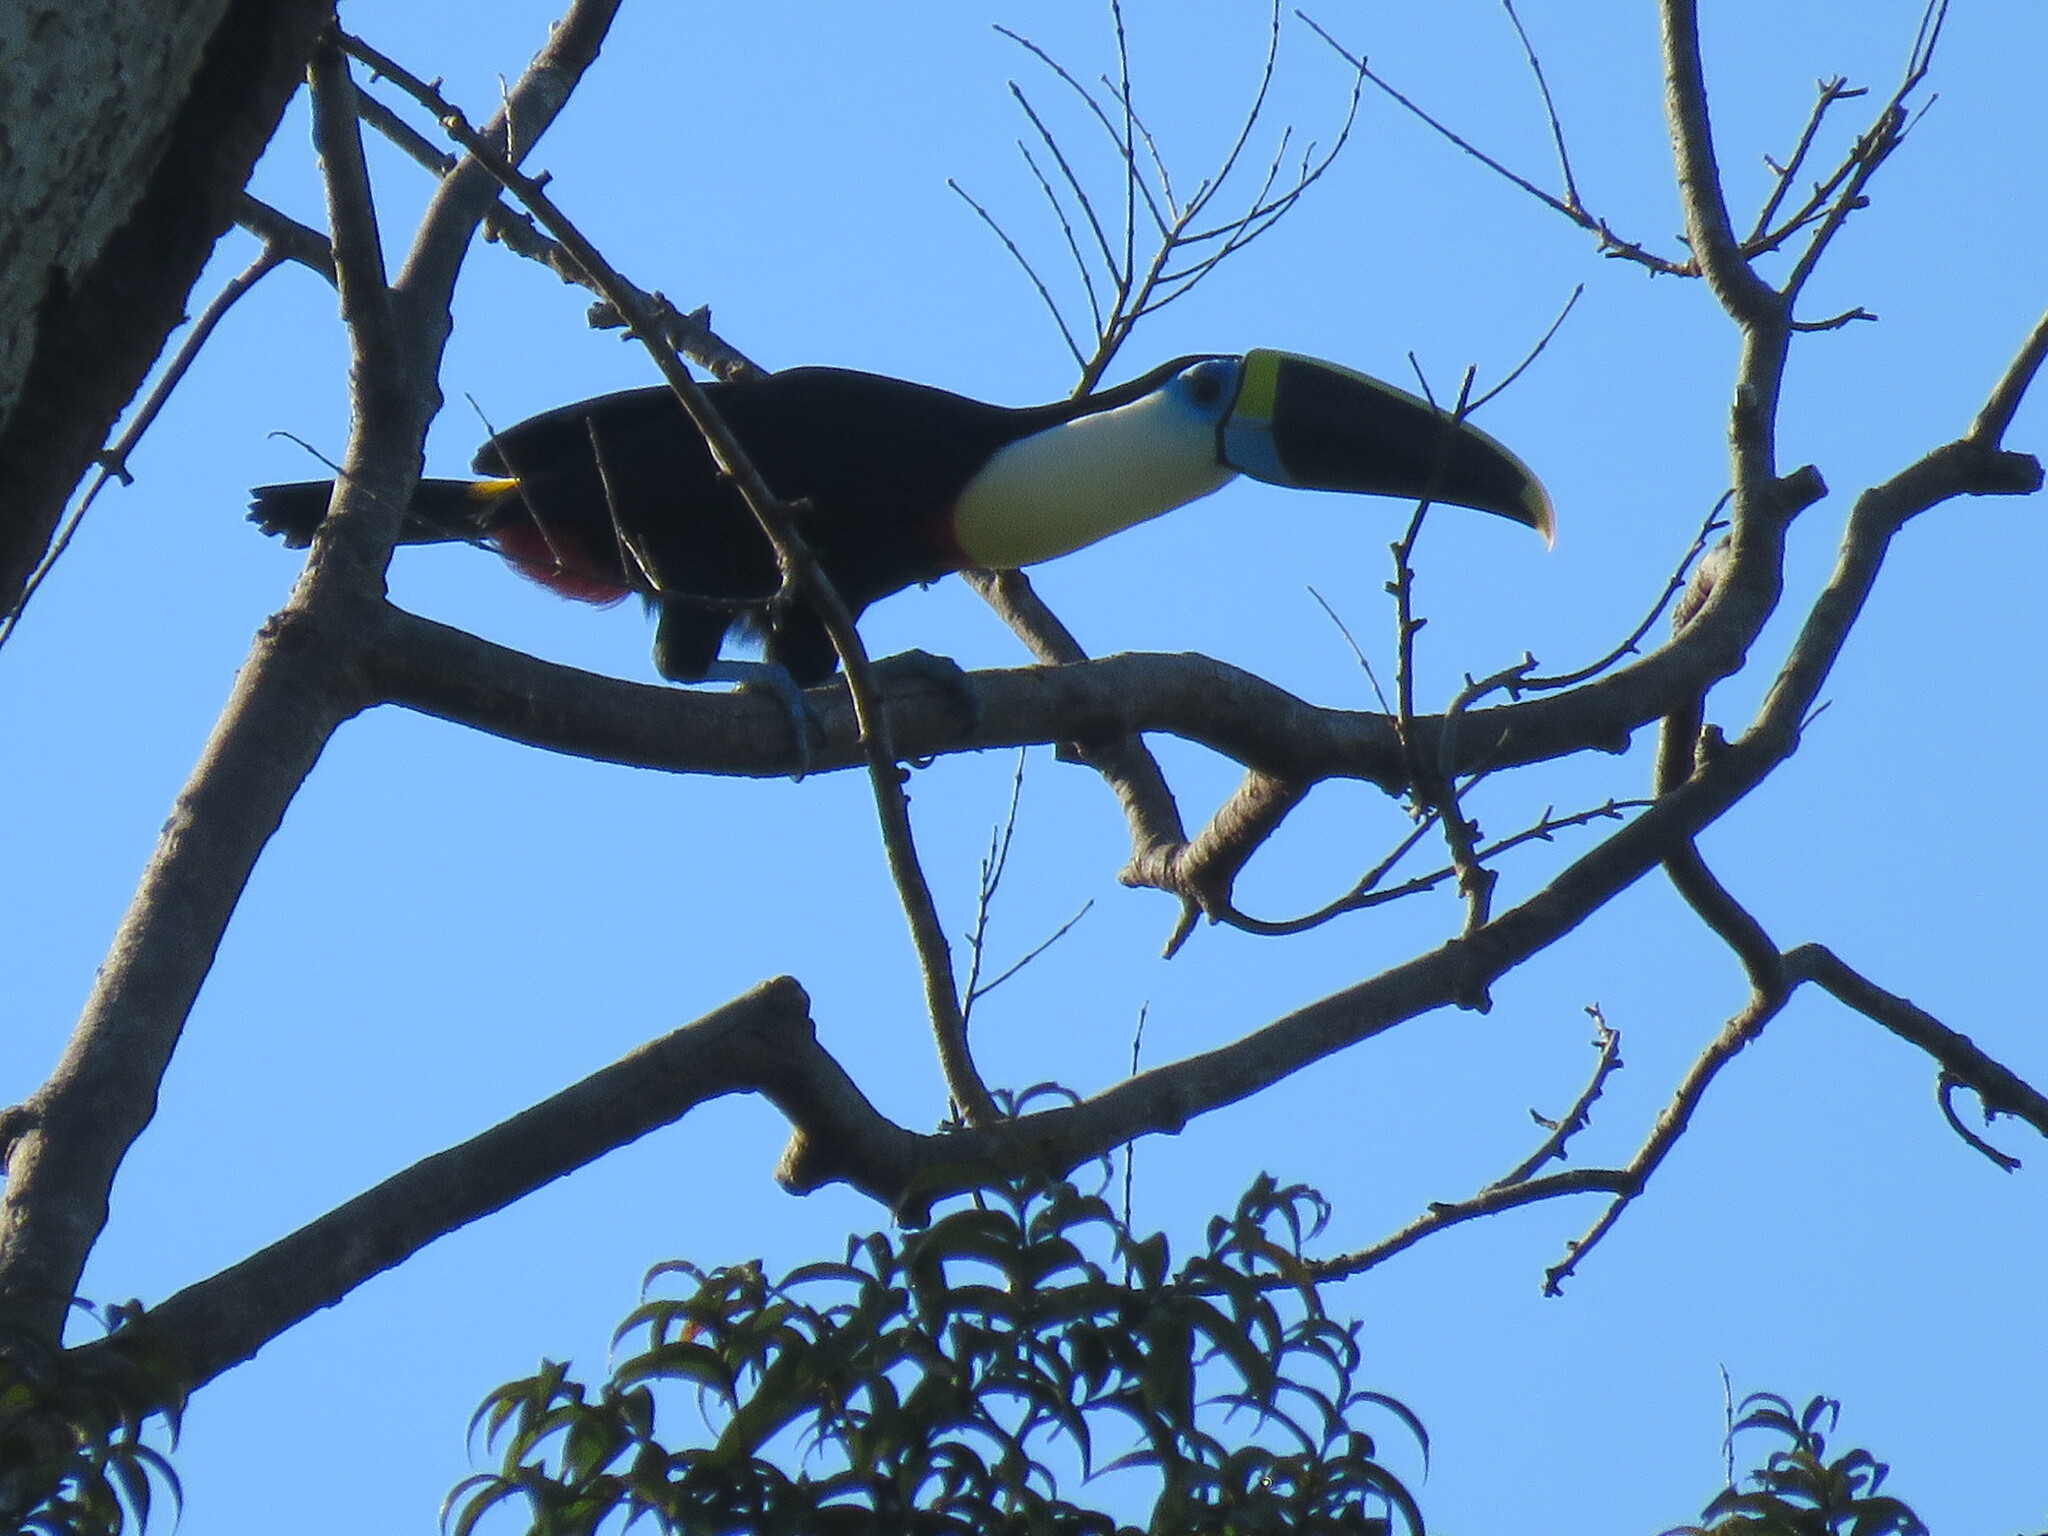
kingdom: Animalia
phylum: Chordata
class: Aves
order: Piciformes
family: Ramphastidae
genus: Ramphastos
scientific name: Ramphastos tucanus
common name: White-throated toucan
